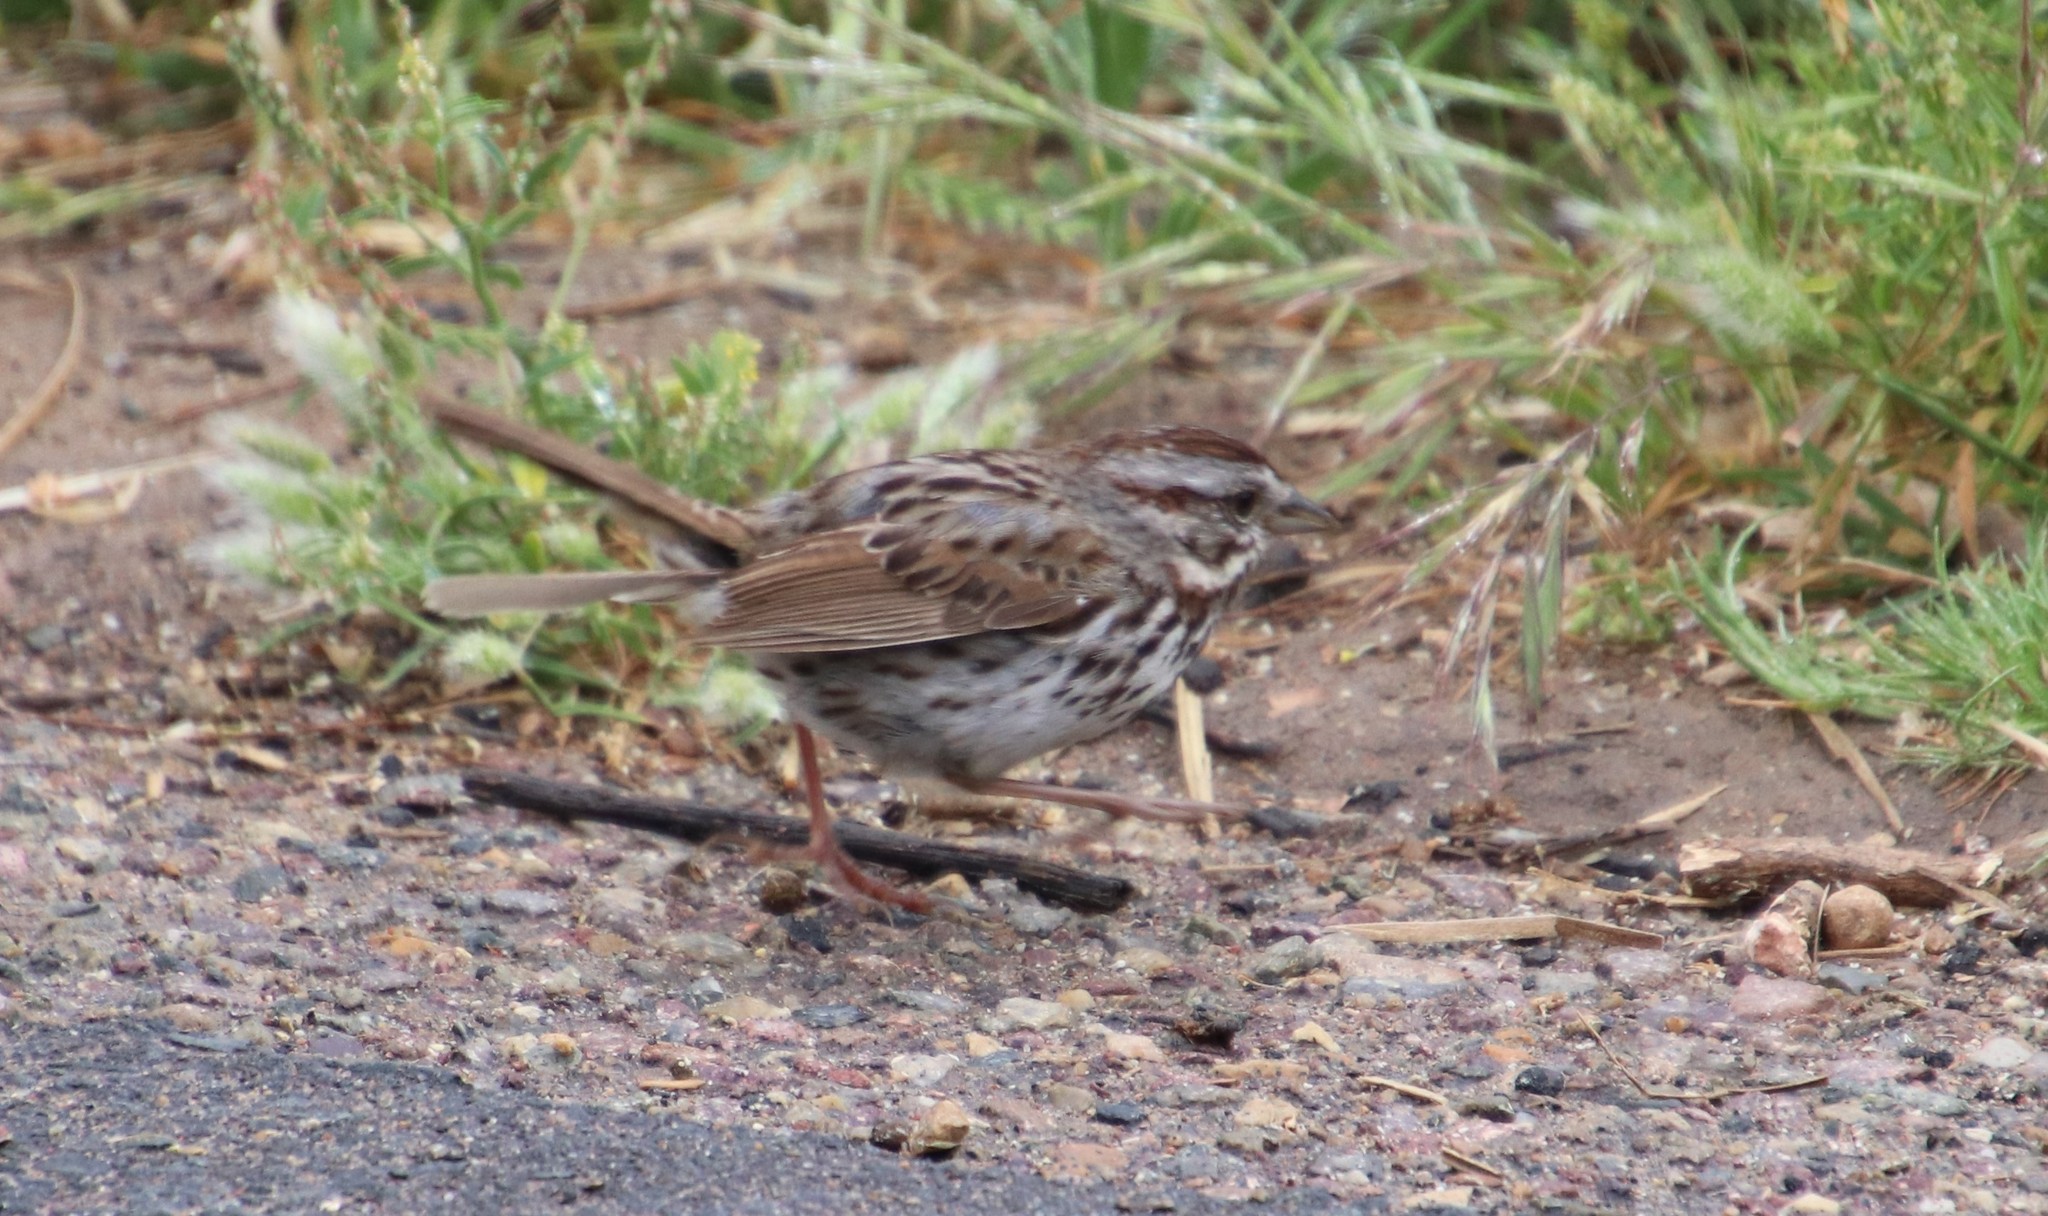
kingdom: Animalia
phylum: Chordata
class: Aves
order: Passeriformes
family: Passerellidae
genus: Melospiza
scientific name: Melospiza melodia
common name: Song sparrow
